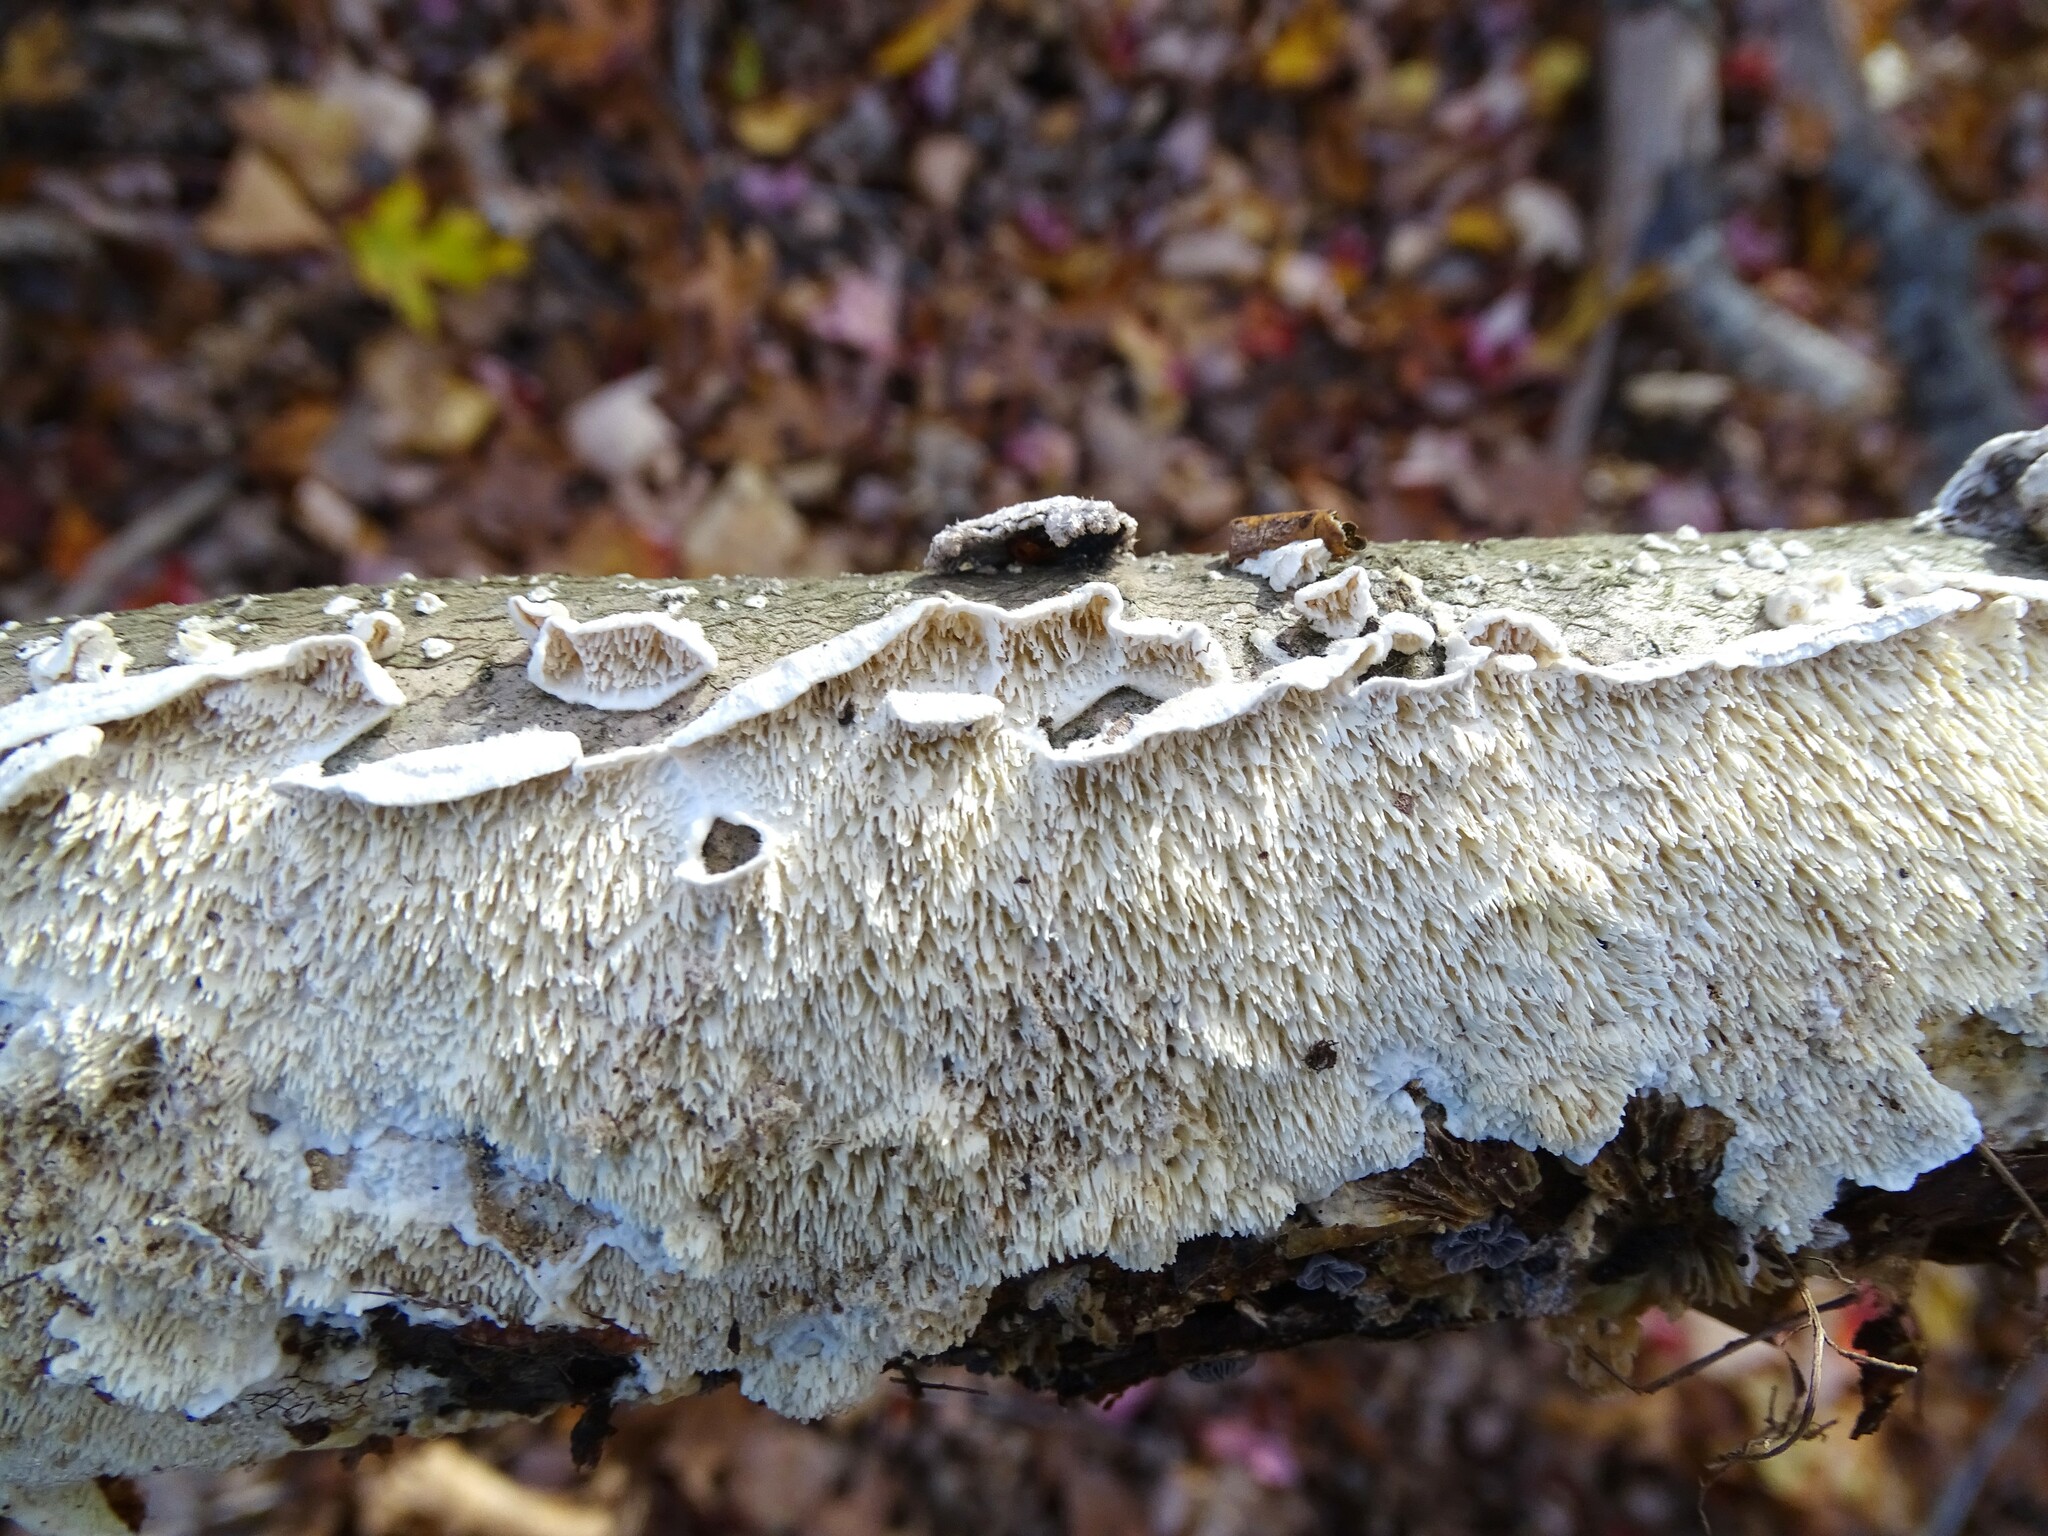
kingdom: Fungi
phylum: Basidiomycota
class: Agaricomycetes
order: Polyporales
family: Irpicaceae
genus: Irpex
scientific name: Irpex lacteus
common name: Milk-white toothed polypore
